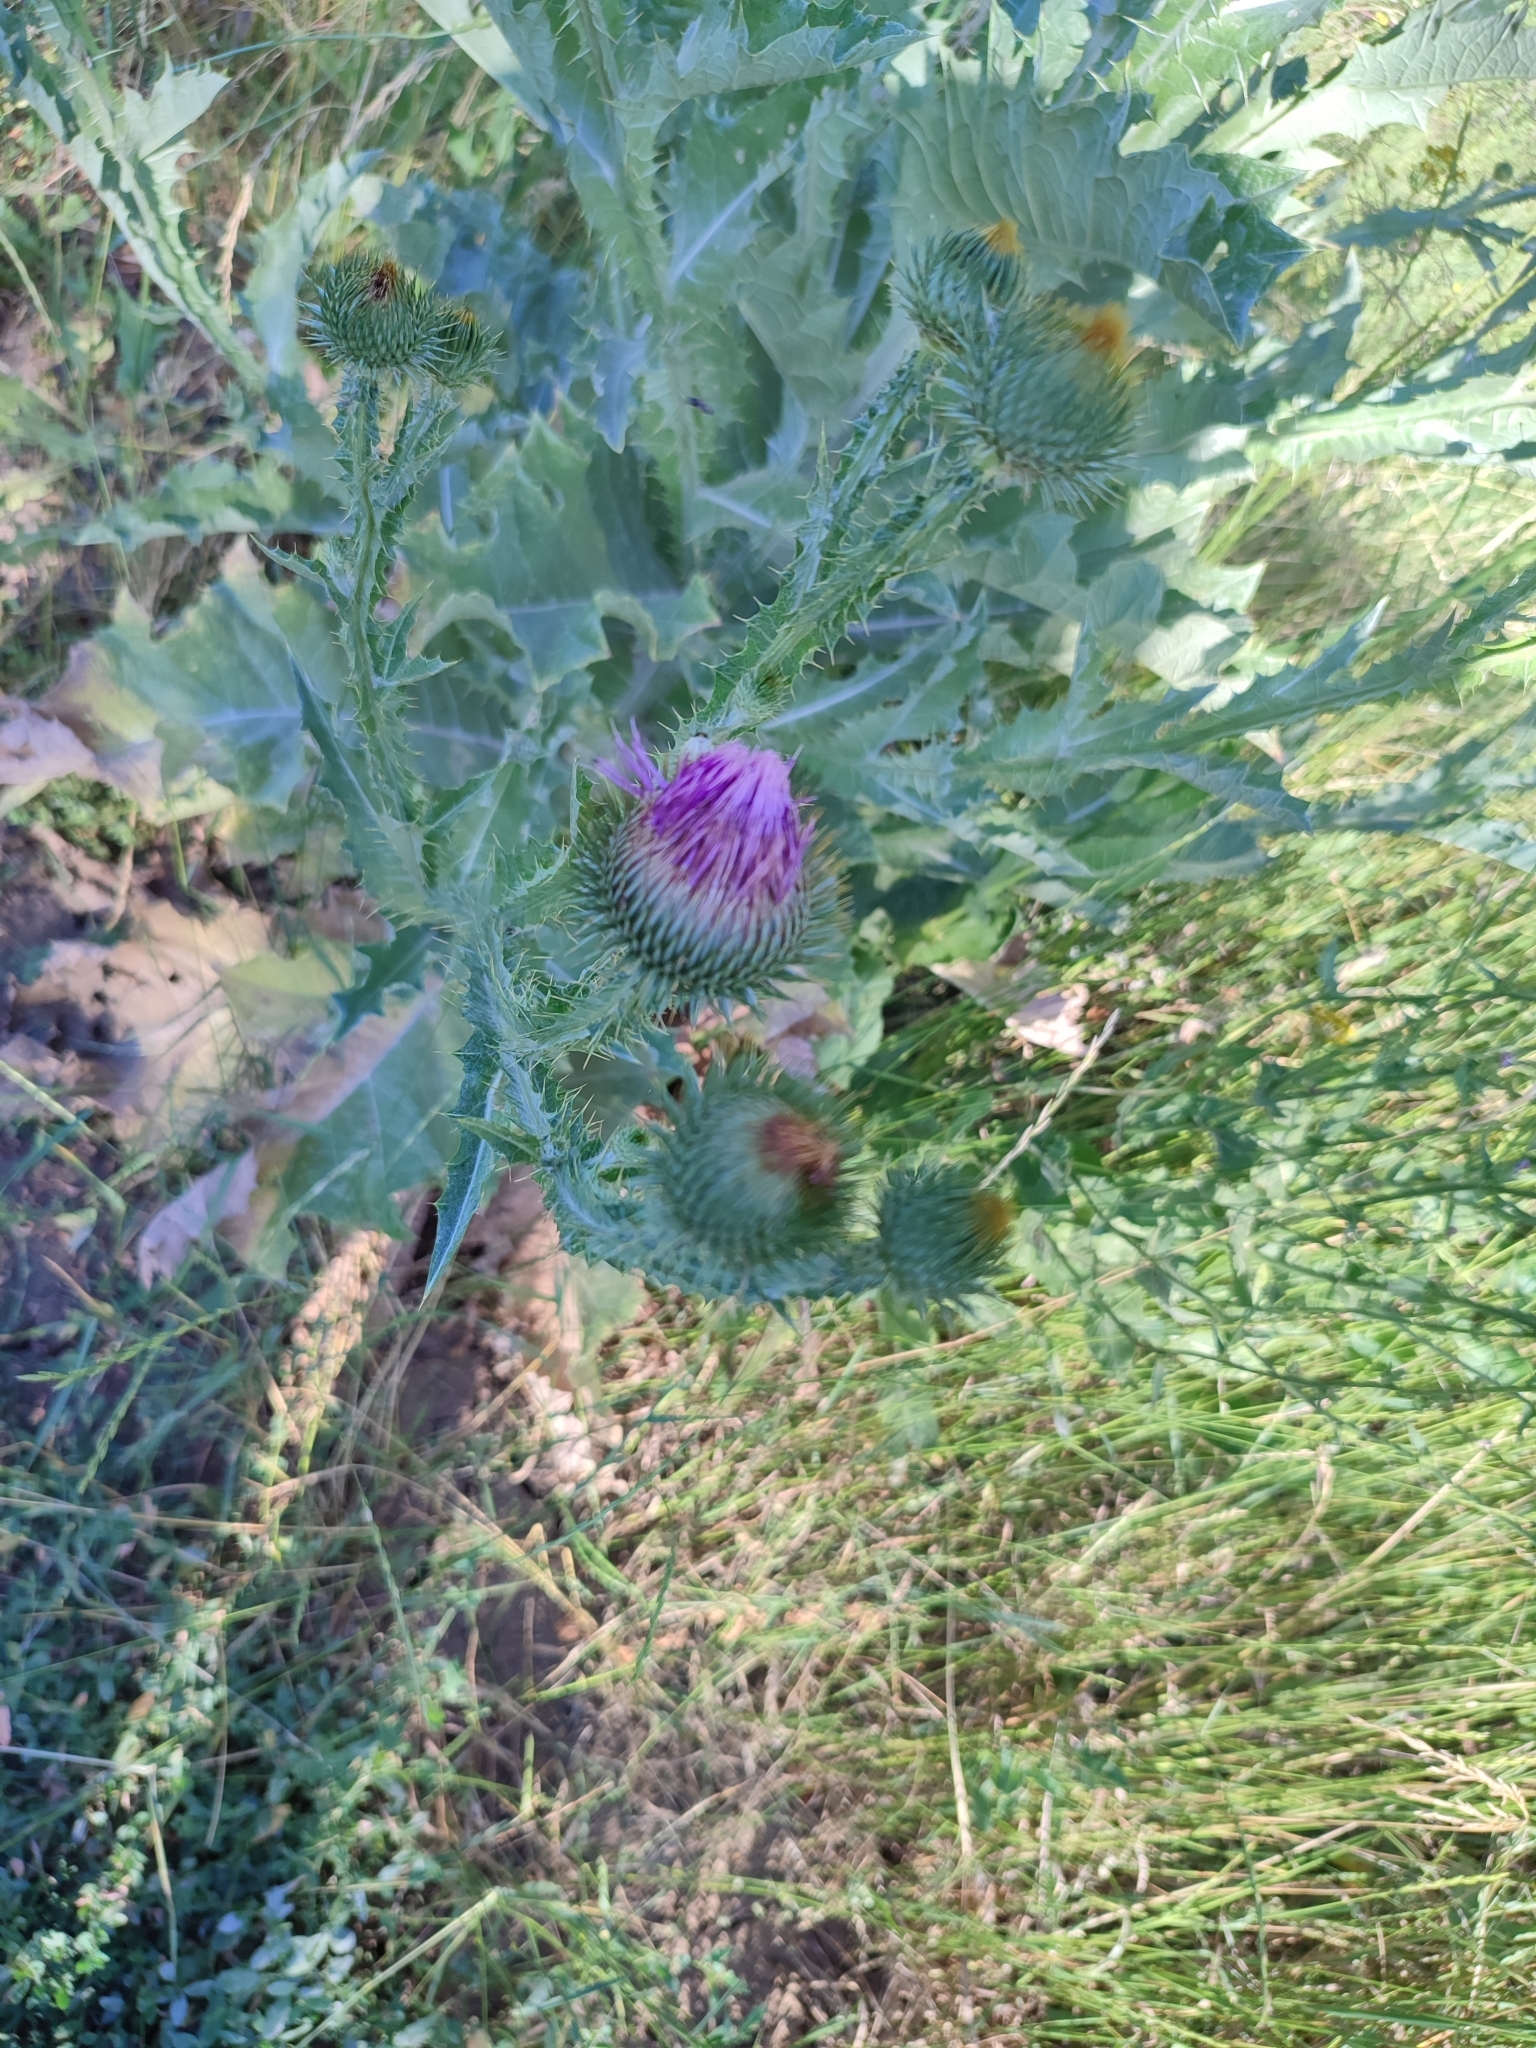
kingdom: Plantae
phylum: Tracheophyta
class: Magnoliopsida
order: Asterales
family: Asteraceae
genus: Onopordum
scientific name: Onopordum acanthium
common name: Scotch thistle
